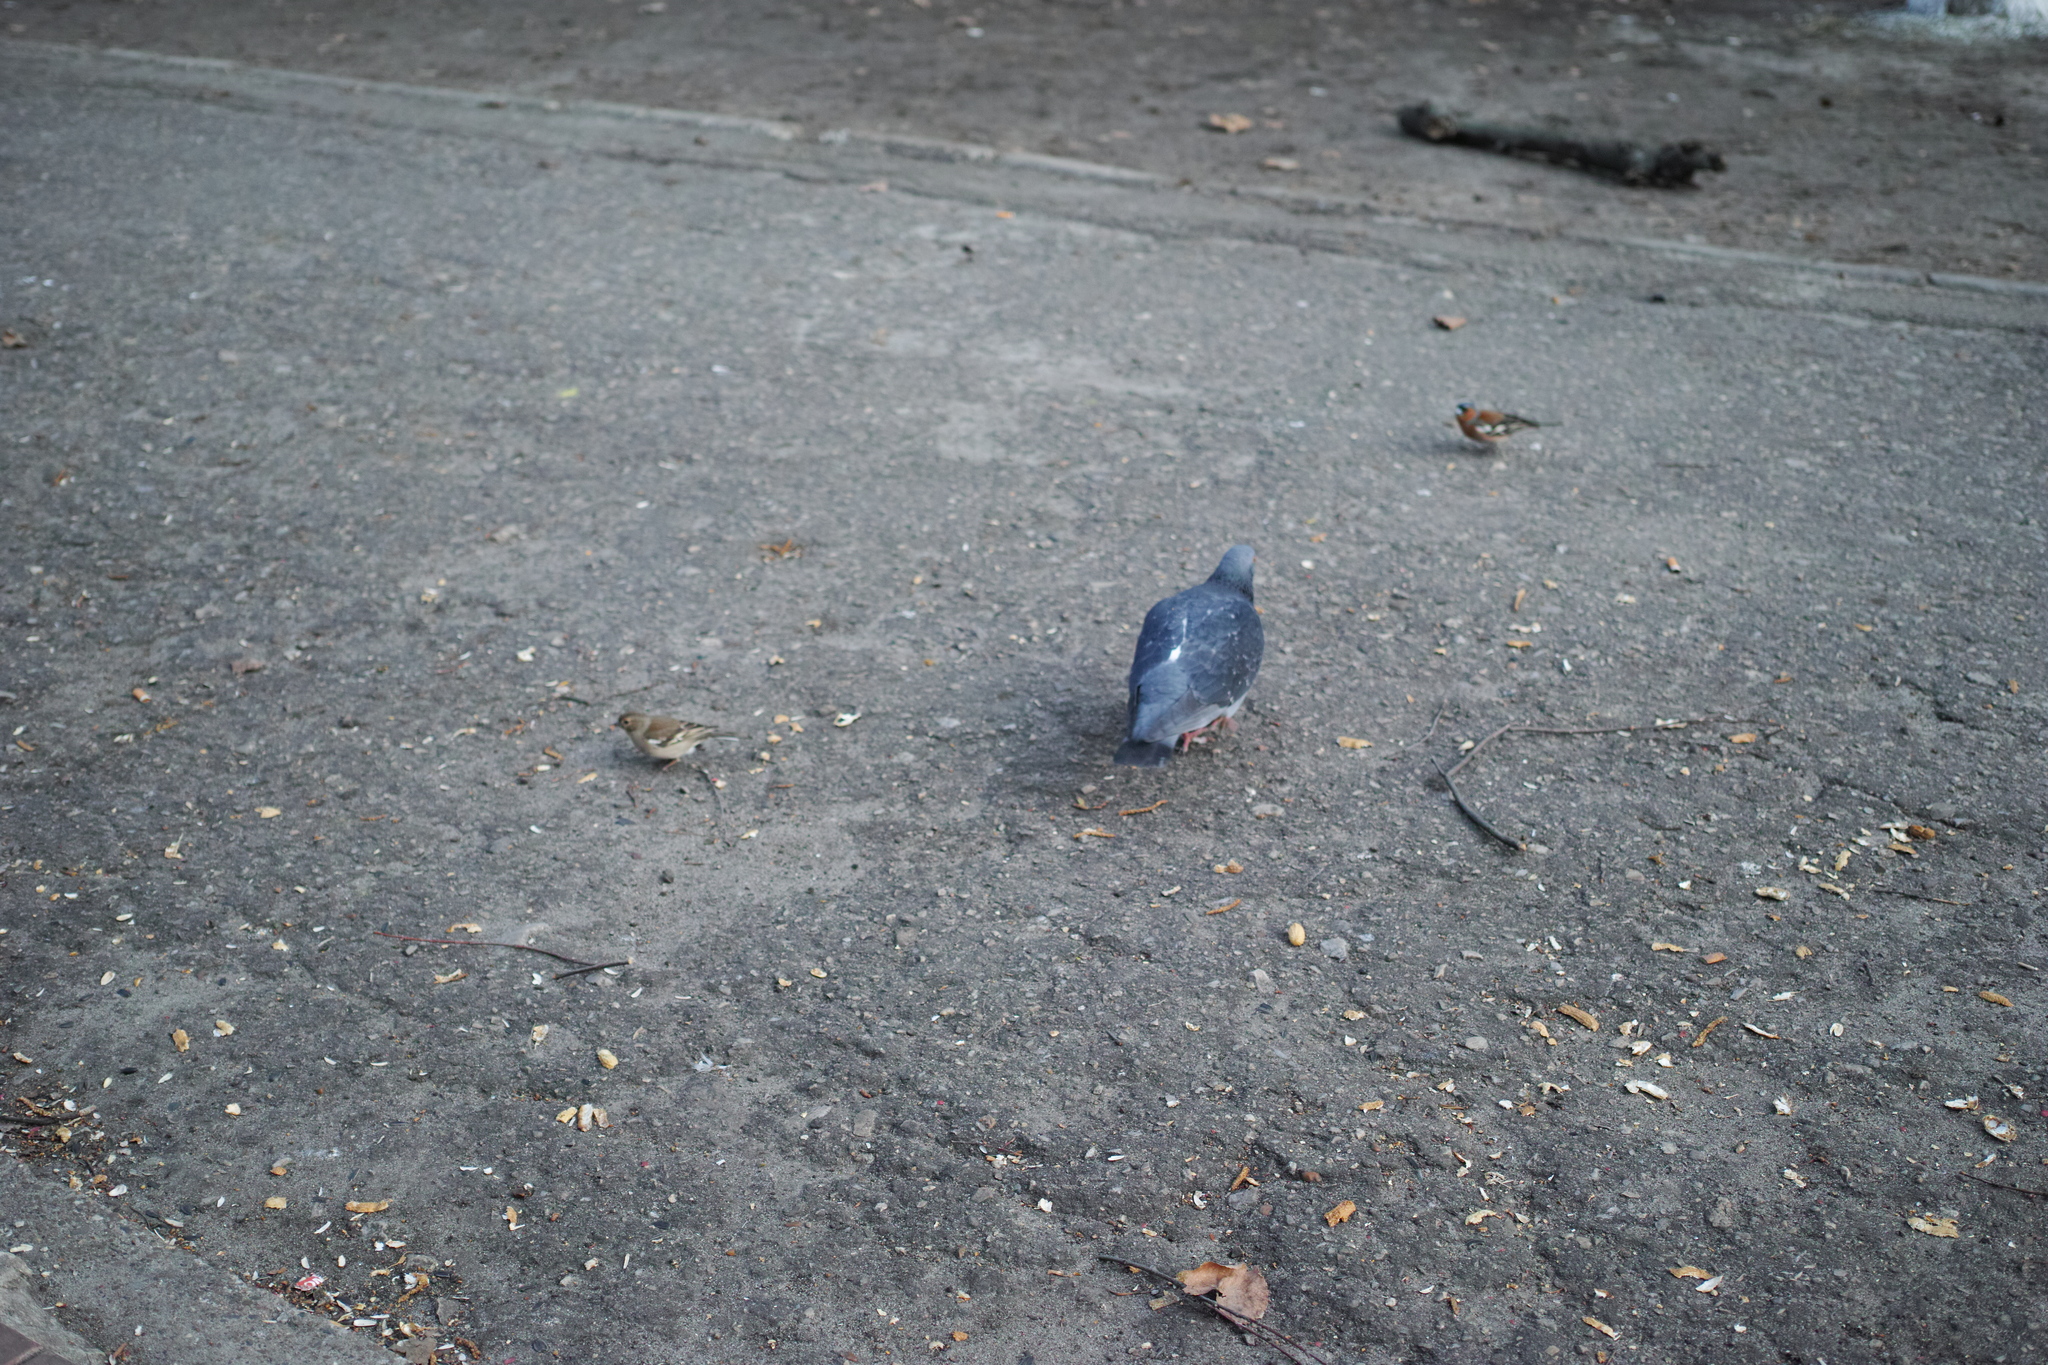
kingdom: Animalia
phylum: Chordata
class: Aves
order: Passeriformes
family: Fringillidae
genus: Fringilla
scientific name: Fringilla coelebs
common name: Common chaffinch
